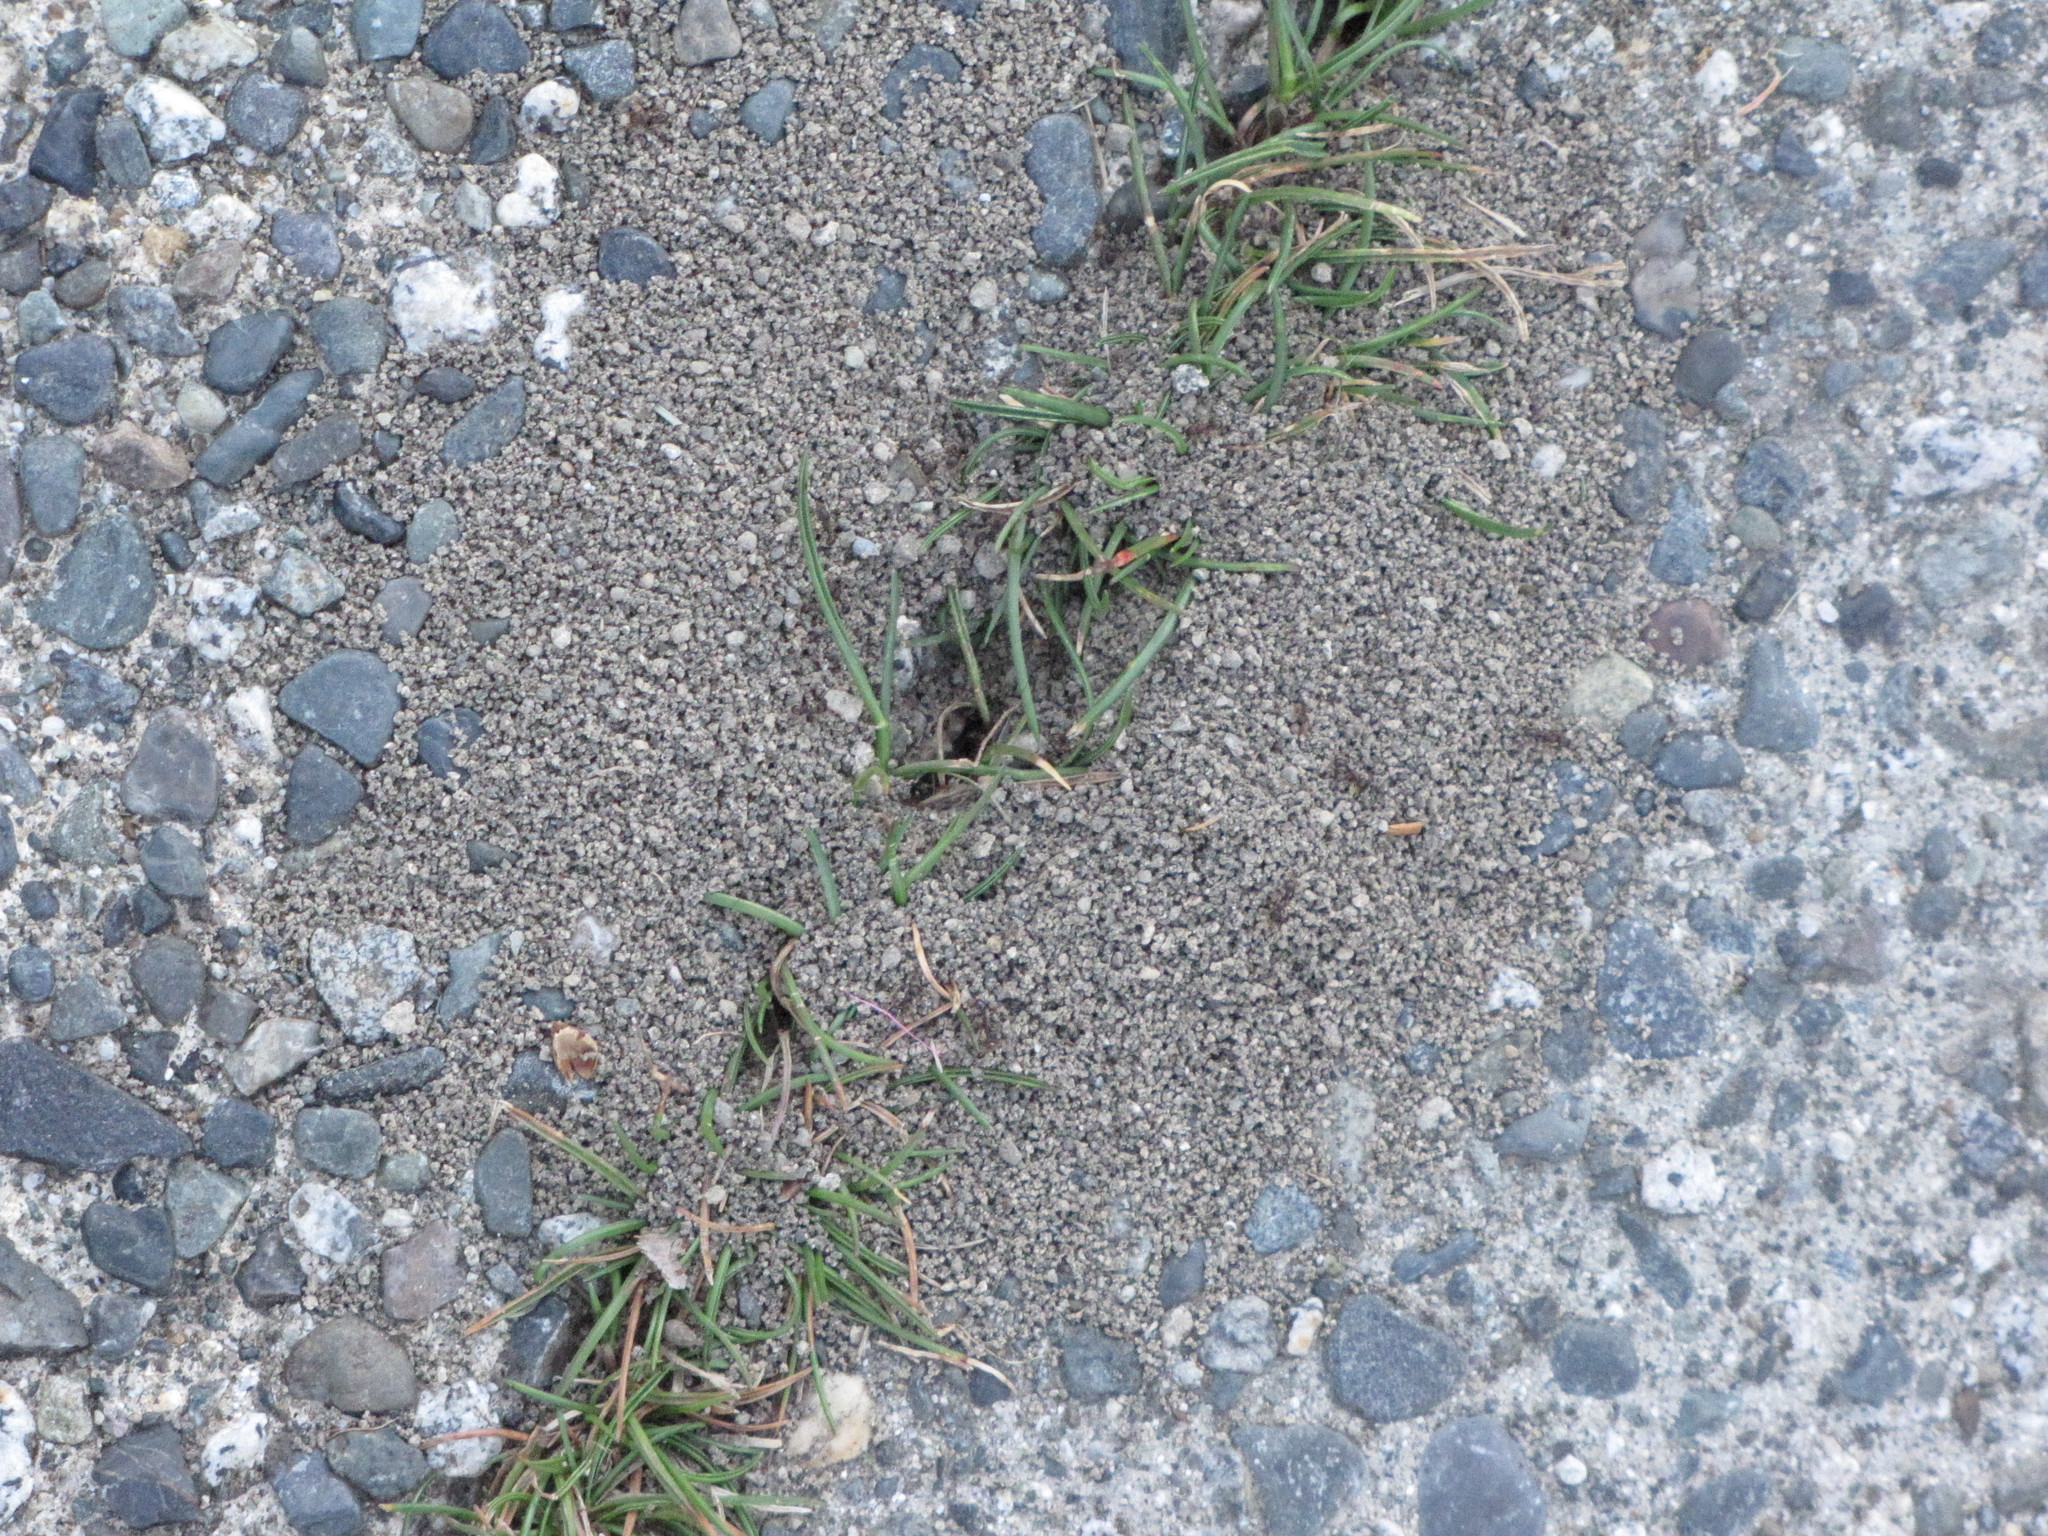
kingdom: Animalia
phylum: Arthropoda
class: Insecta
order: Hymenoptera
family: Formicidae
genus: Tetramorium
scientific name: Tetramorium immigrans
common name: Pavement ant
